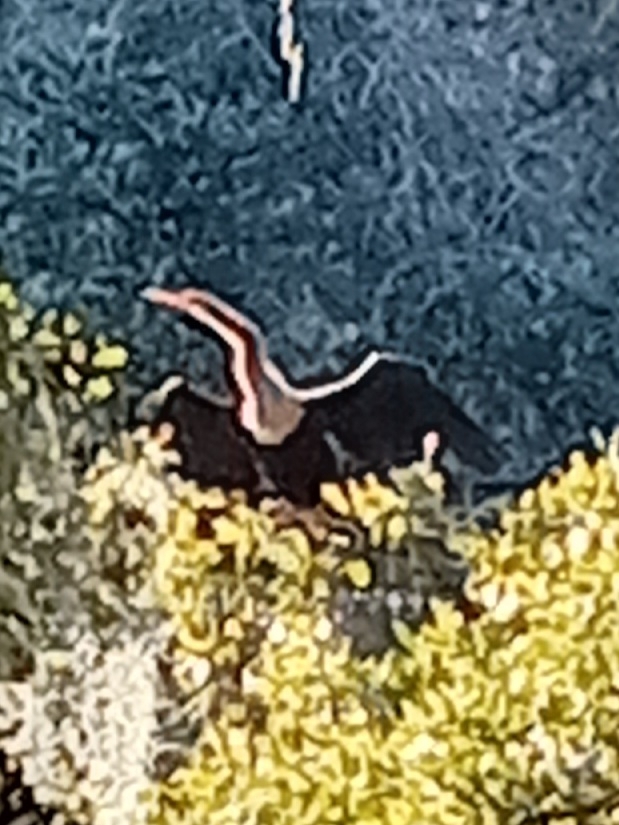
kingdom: Animalia
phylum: Chordata
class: Aves
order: Suliformes
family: Anhingidae
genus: Anhinga
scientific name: Anhinga anhinga
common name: Anhinga
